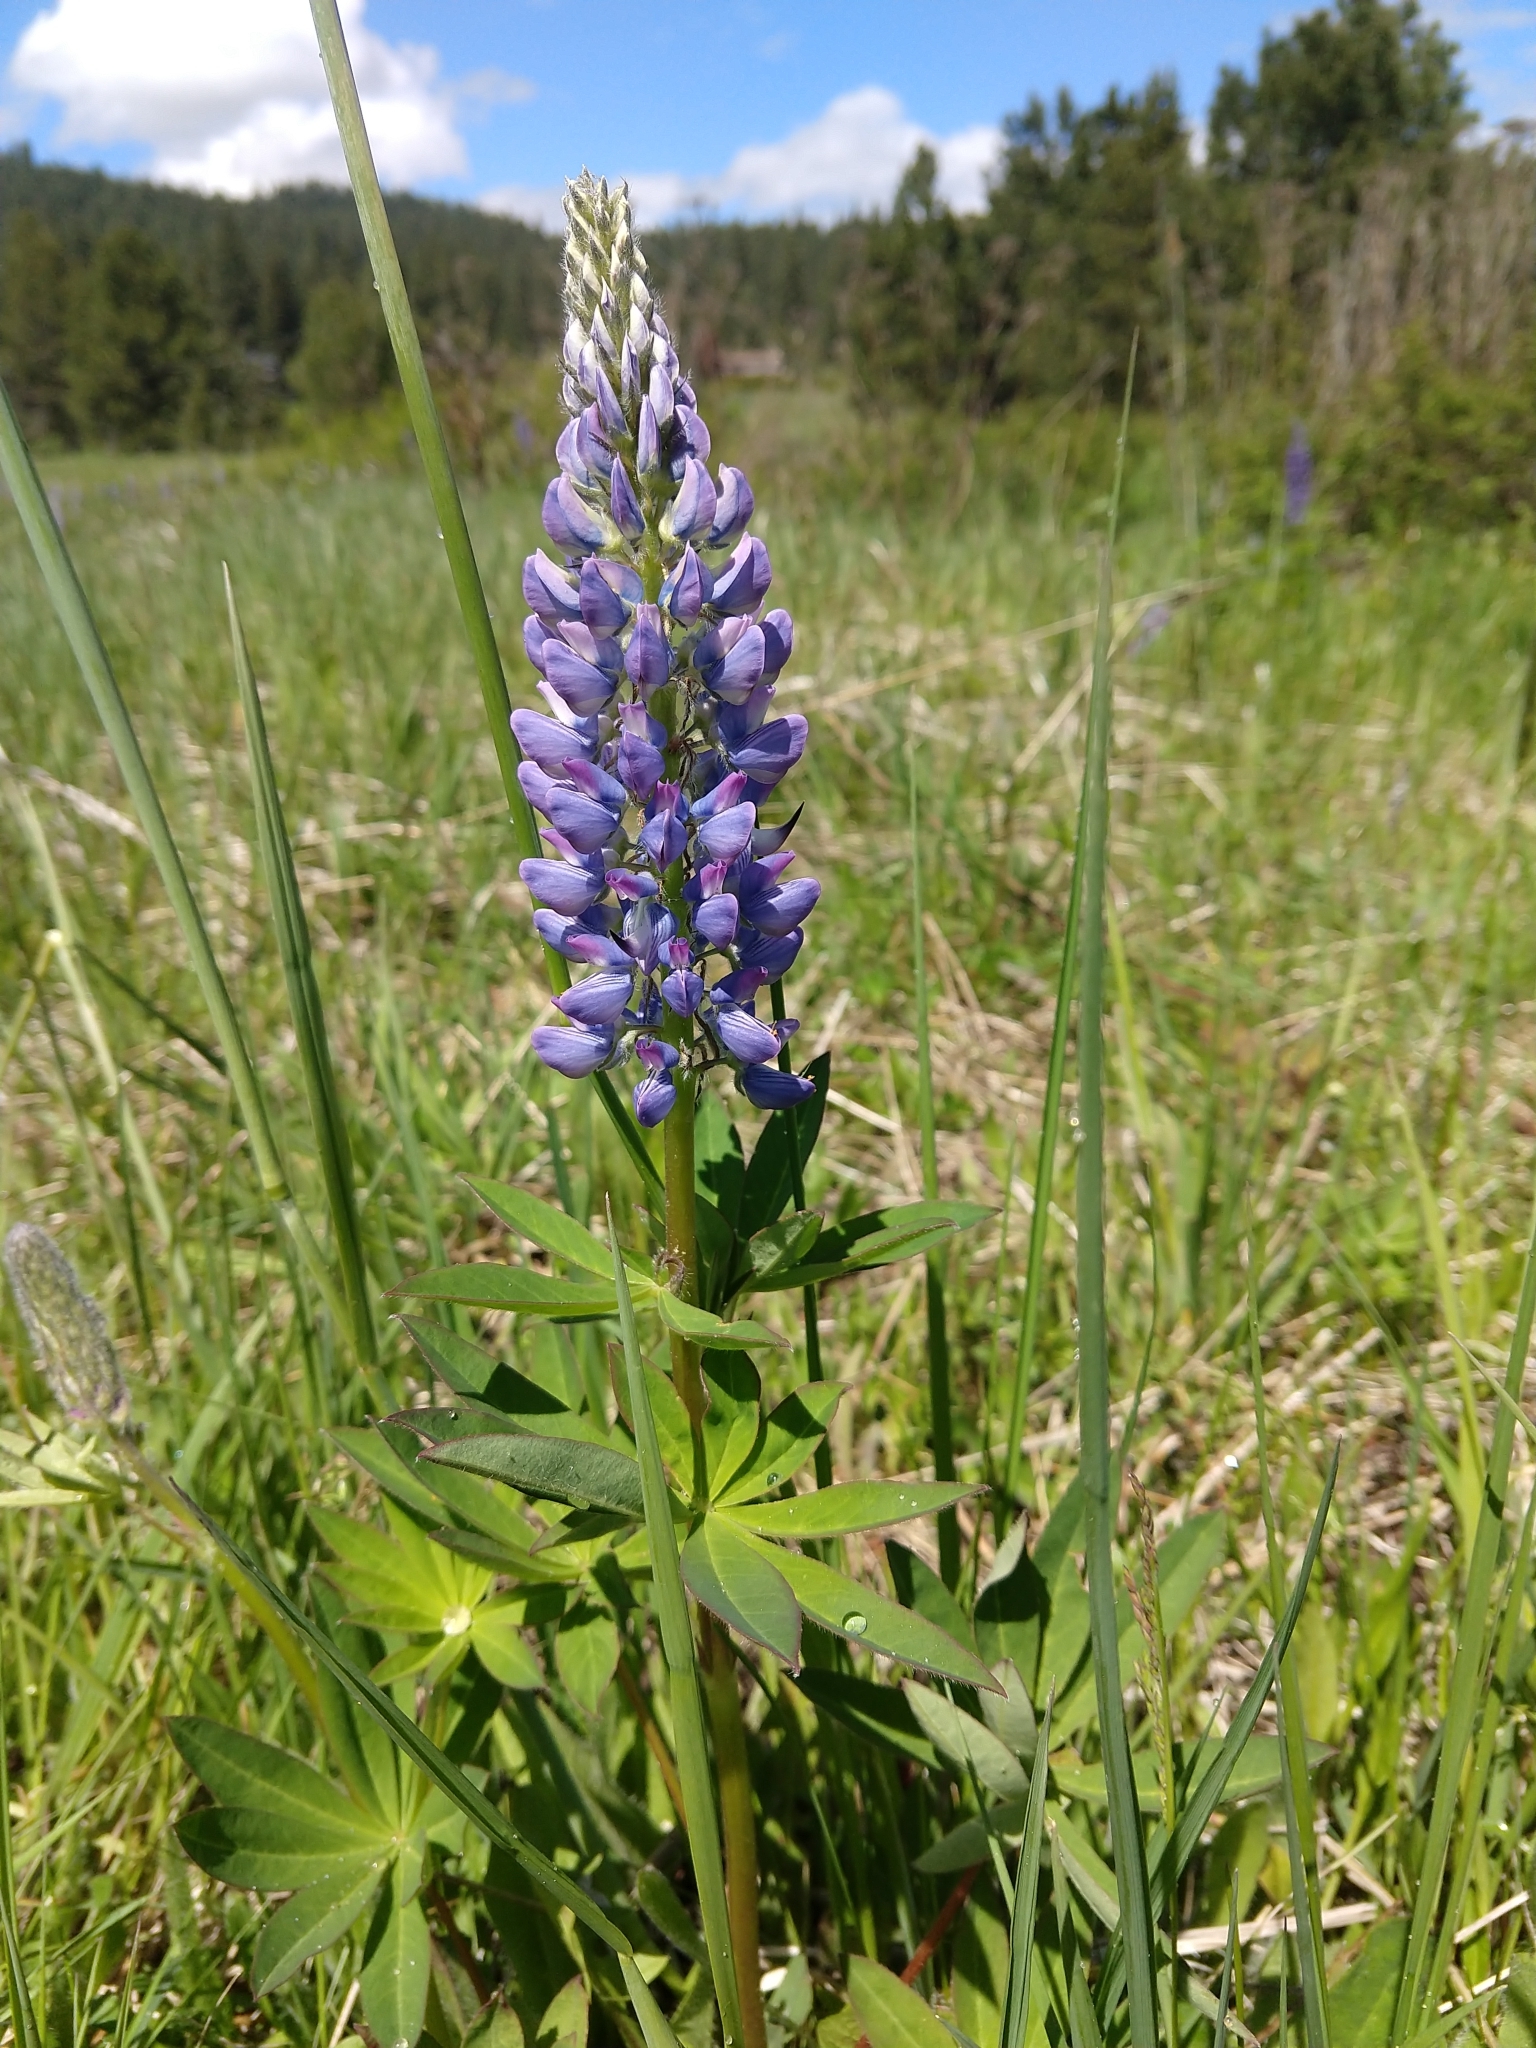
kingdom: Plantae
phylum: Tracheophyta
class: Magnoliopsida
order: Fabales
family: Fabaceae
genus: Lupinus
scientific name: Lupinus polyphyllus
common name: Garden lupin
